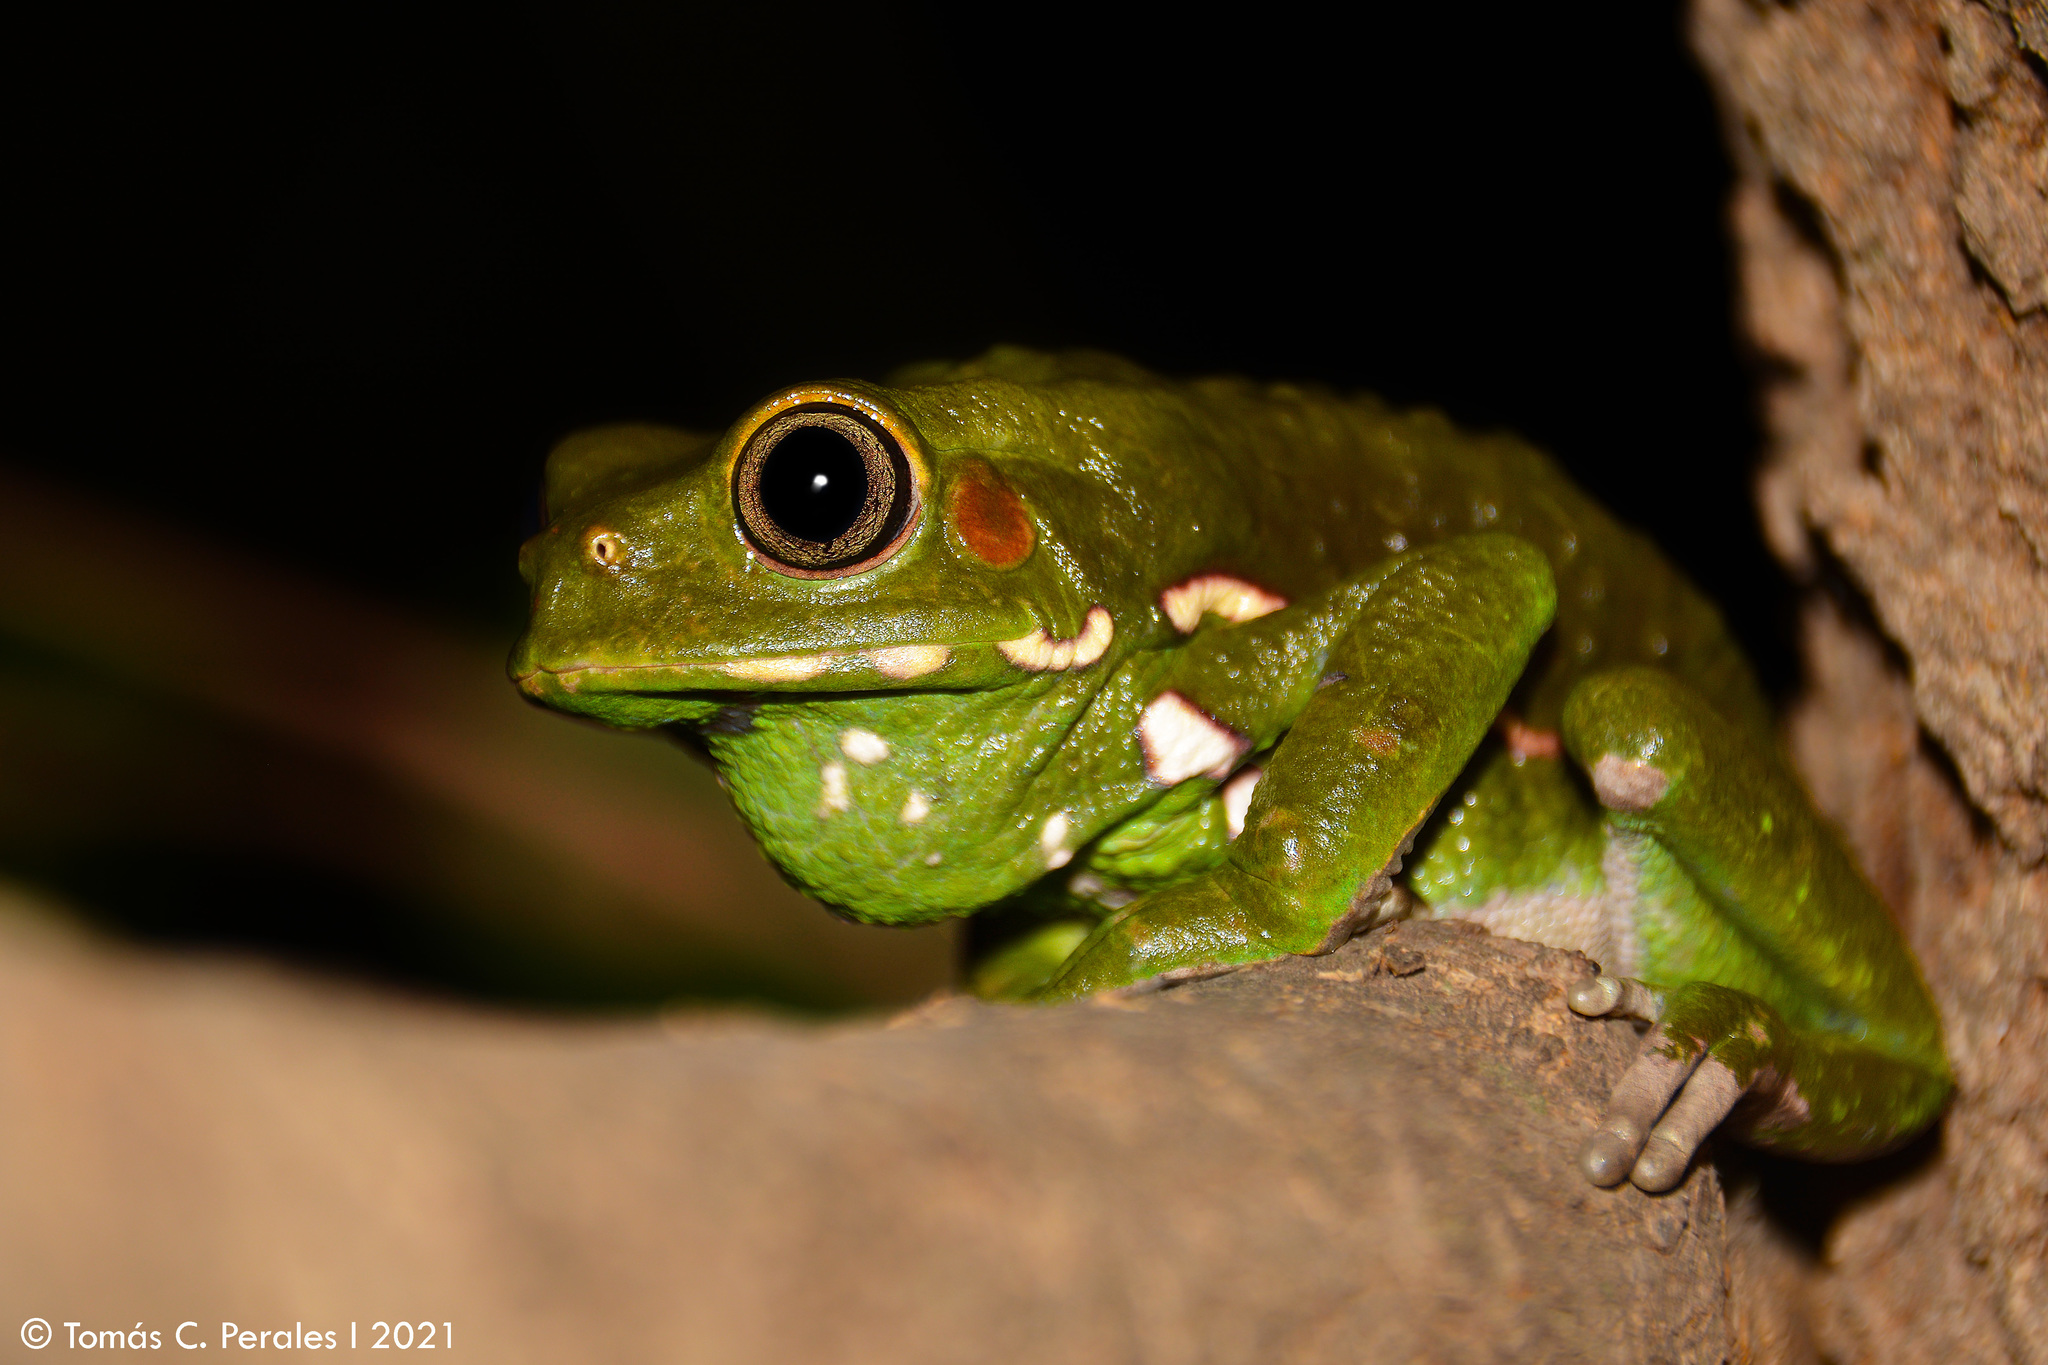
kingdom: Animalia
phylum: Chordata
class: Amphibia
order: Anura
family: Phyllomedusidae
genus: Phyllomedusa
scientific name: Phyllomedusa sauvagii
